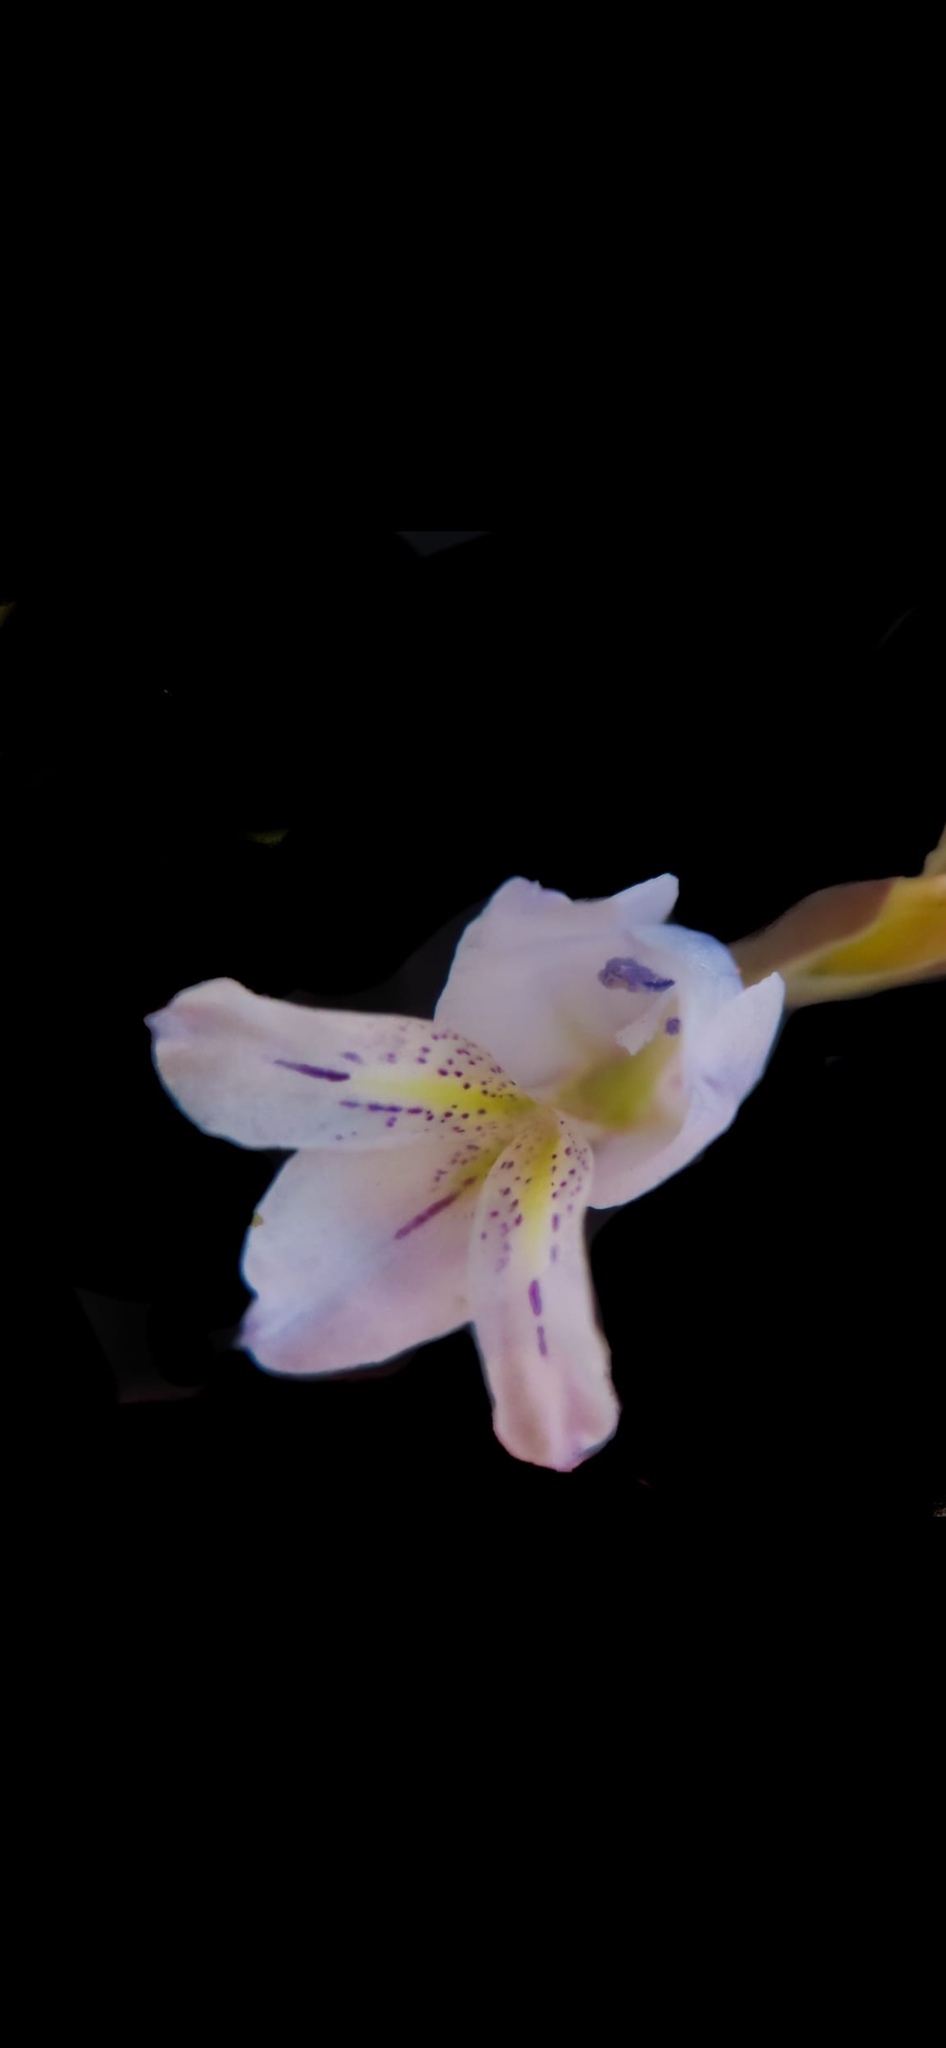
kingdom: Plantae
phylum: Tracheophyta
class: Liliopsida
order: Asparagales
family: Iridaceae
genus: Gladiolus
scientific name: Gladiolus vaginatus
